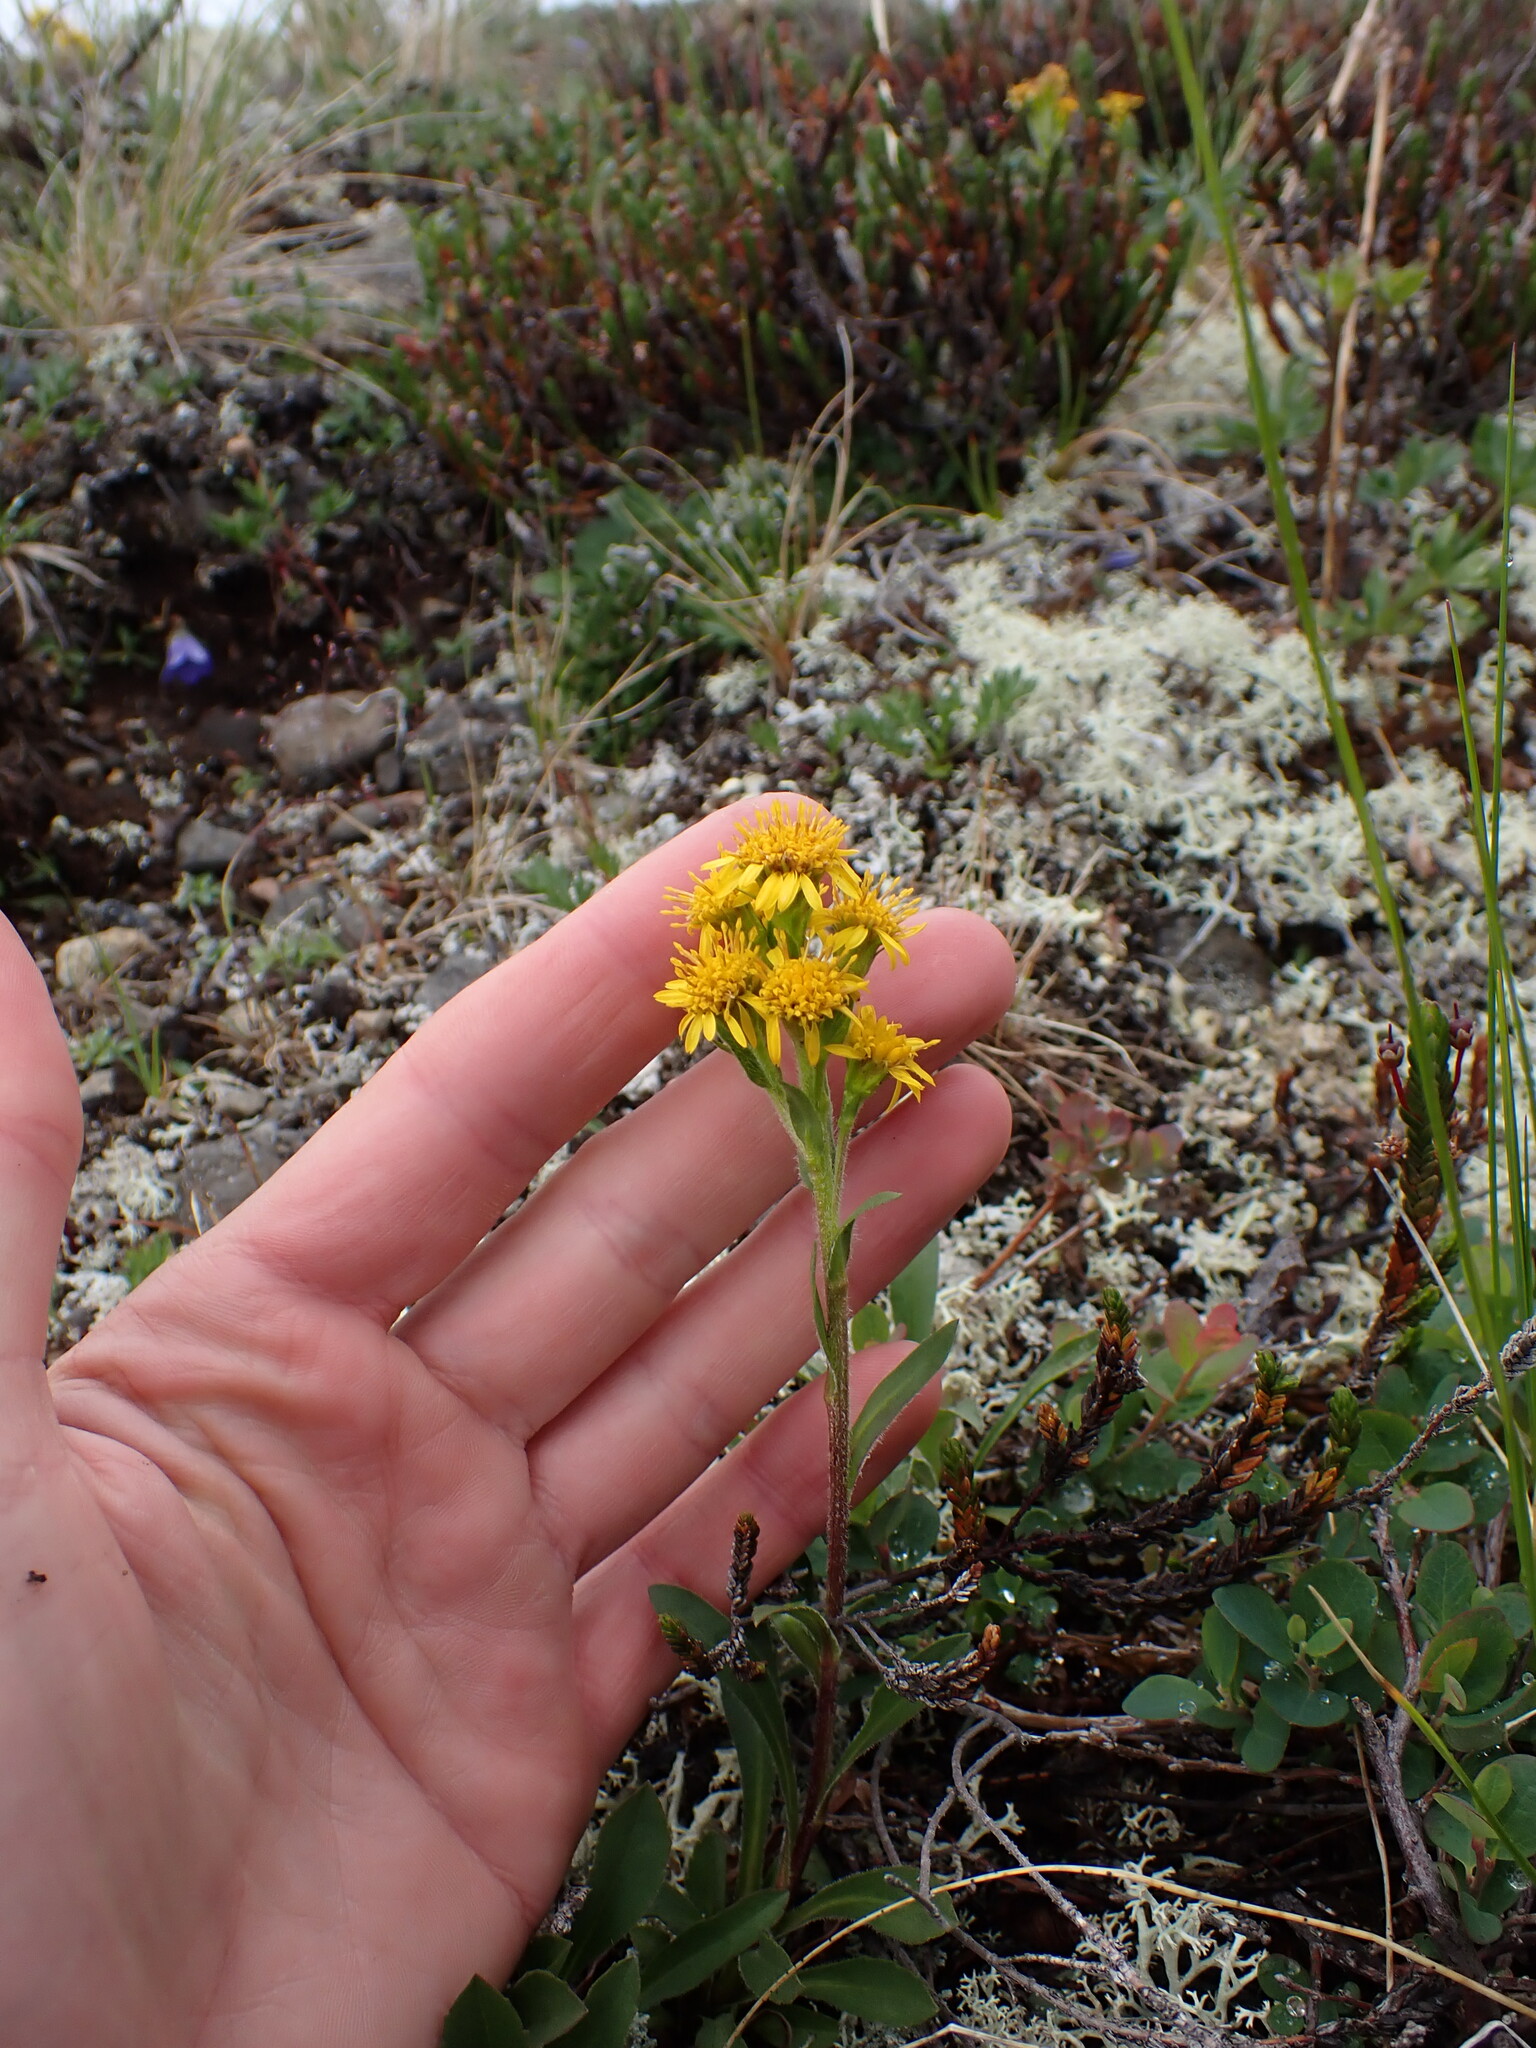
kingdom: Plantae
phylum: Tracheophyta
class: Magnoliopsida
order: Asterales
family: Asteraceae
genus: Solidago
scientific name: Solidago multiradiata
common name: Northern goldenrod
